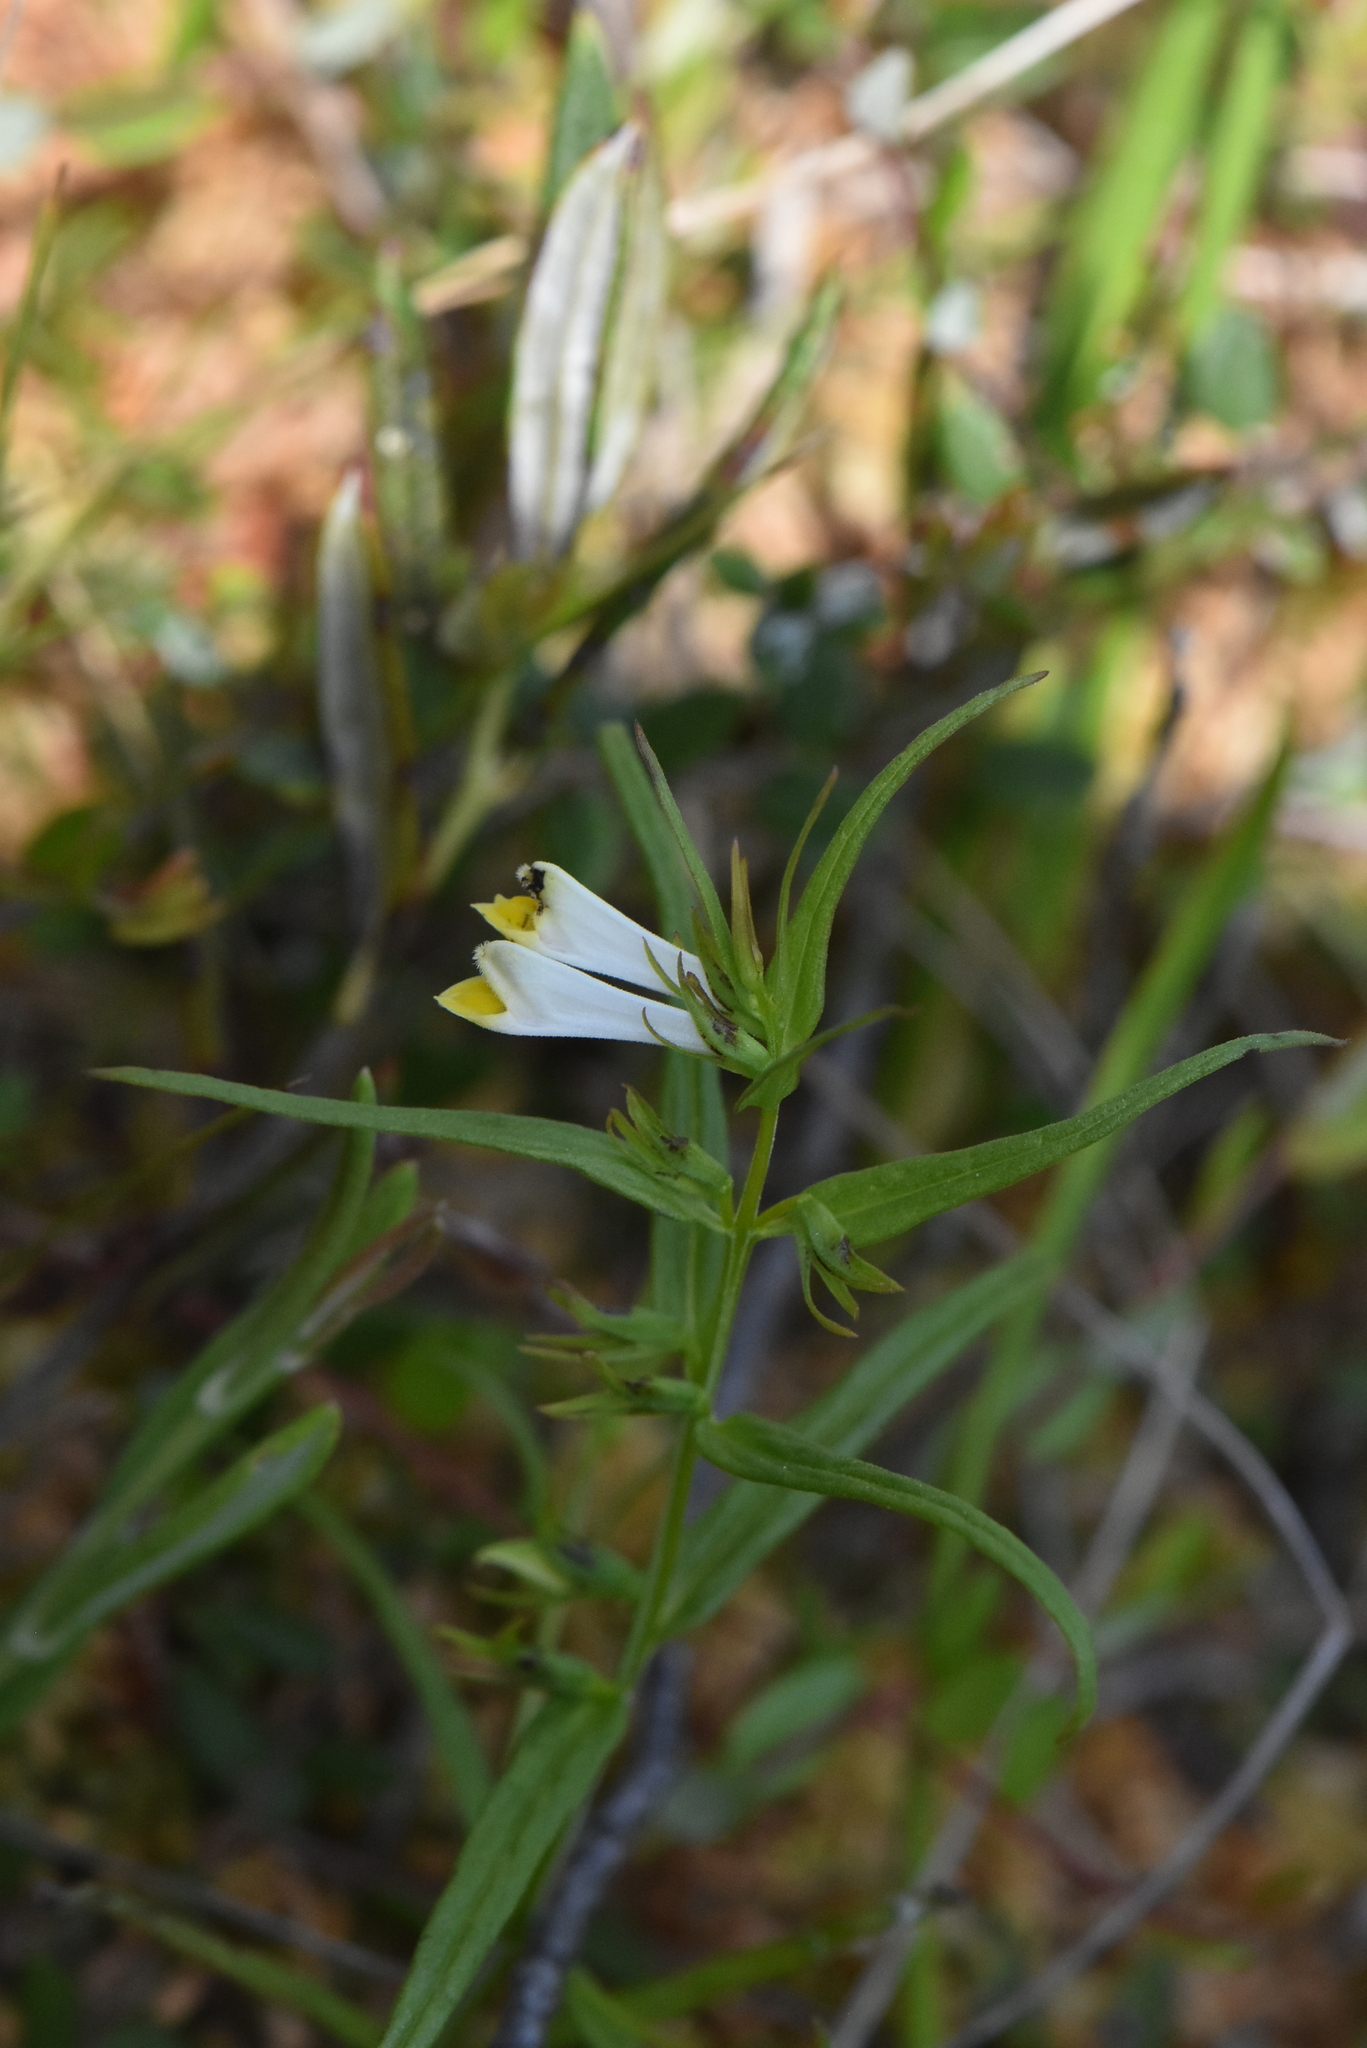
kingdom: Plantae
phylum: Tracheophyta
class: Magnoliopsida
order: Lamiales
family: Orobanchaceae
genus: Melampyrum
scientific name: Melampyrum pratense
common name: Common cow-wheat
